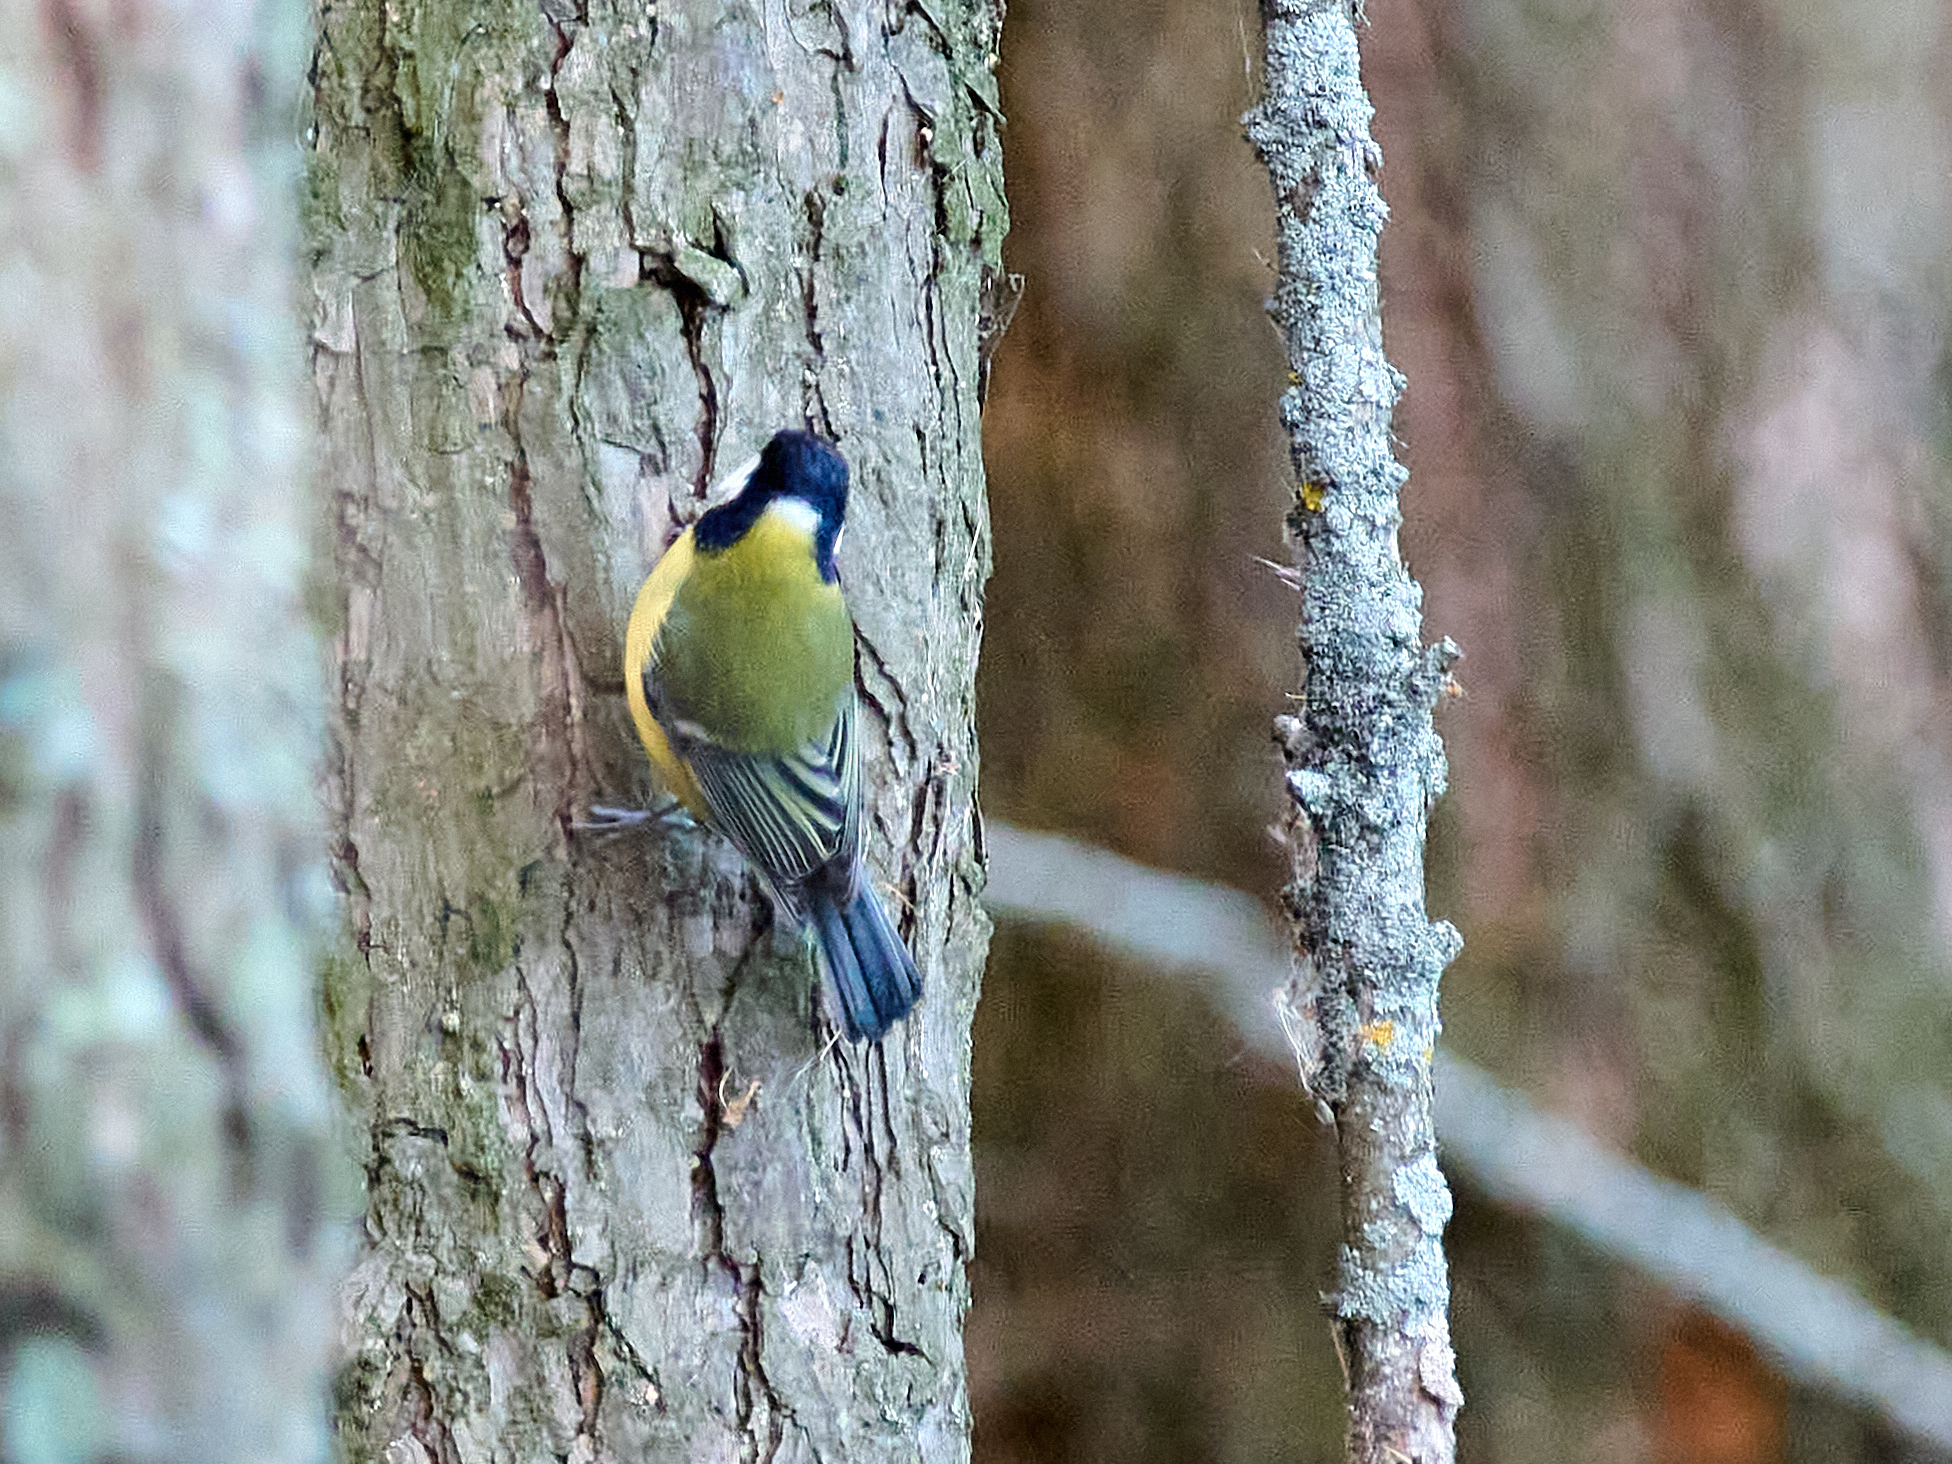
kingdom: Animalia
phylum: Chordata
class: Aves
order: Passeriformes
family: Paridae
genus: Parus
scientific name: Parus major
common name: Great tit
